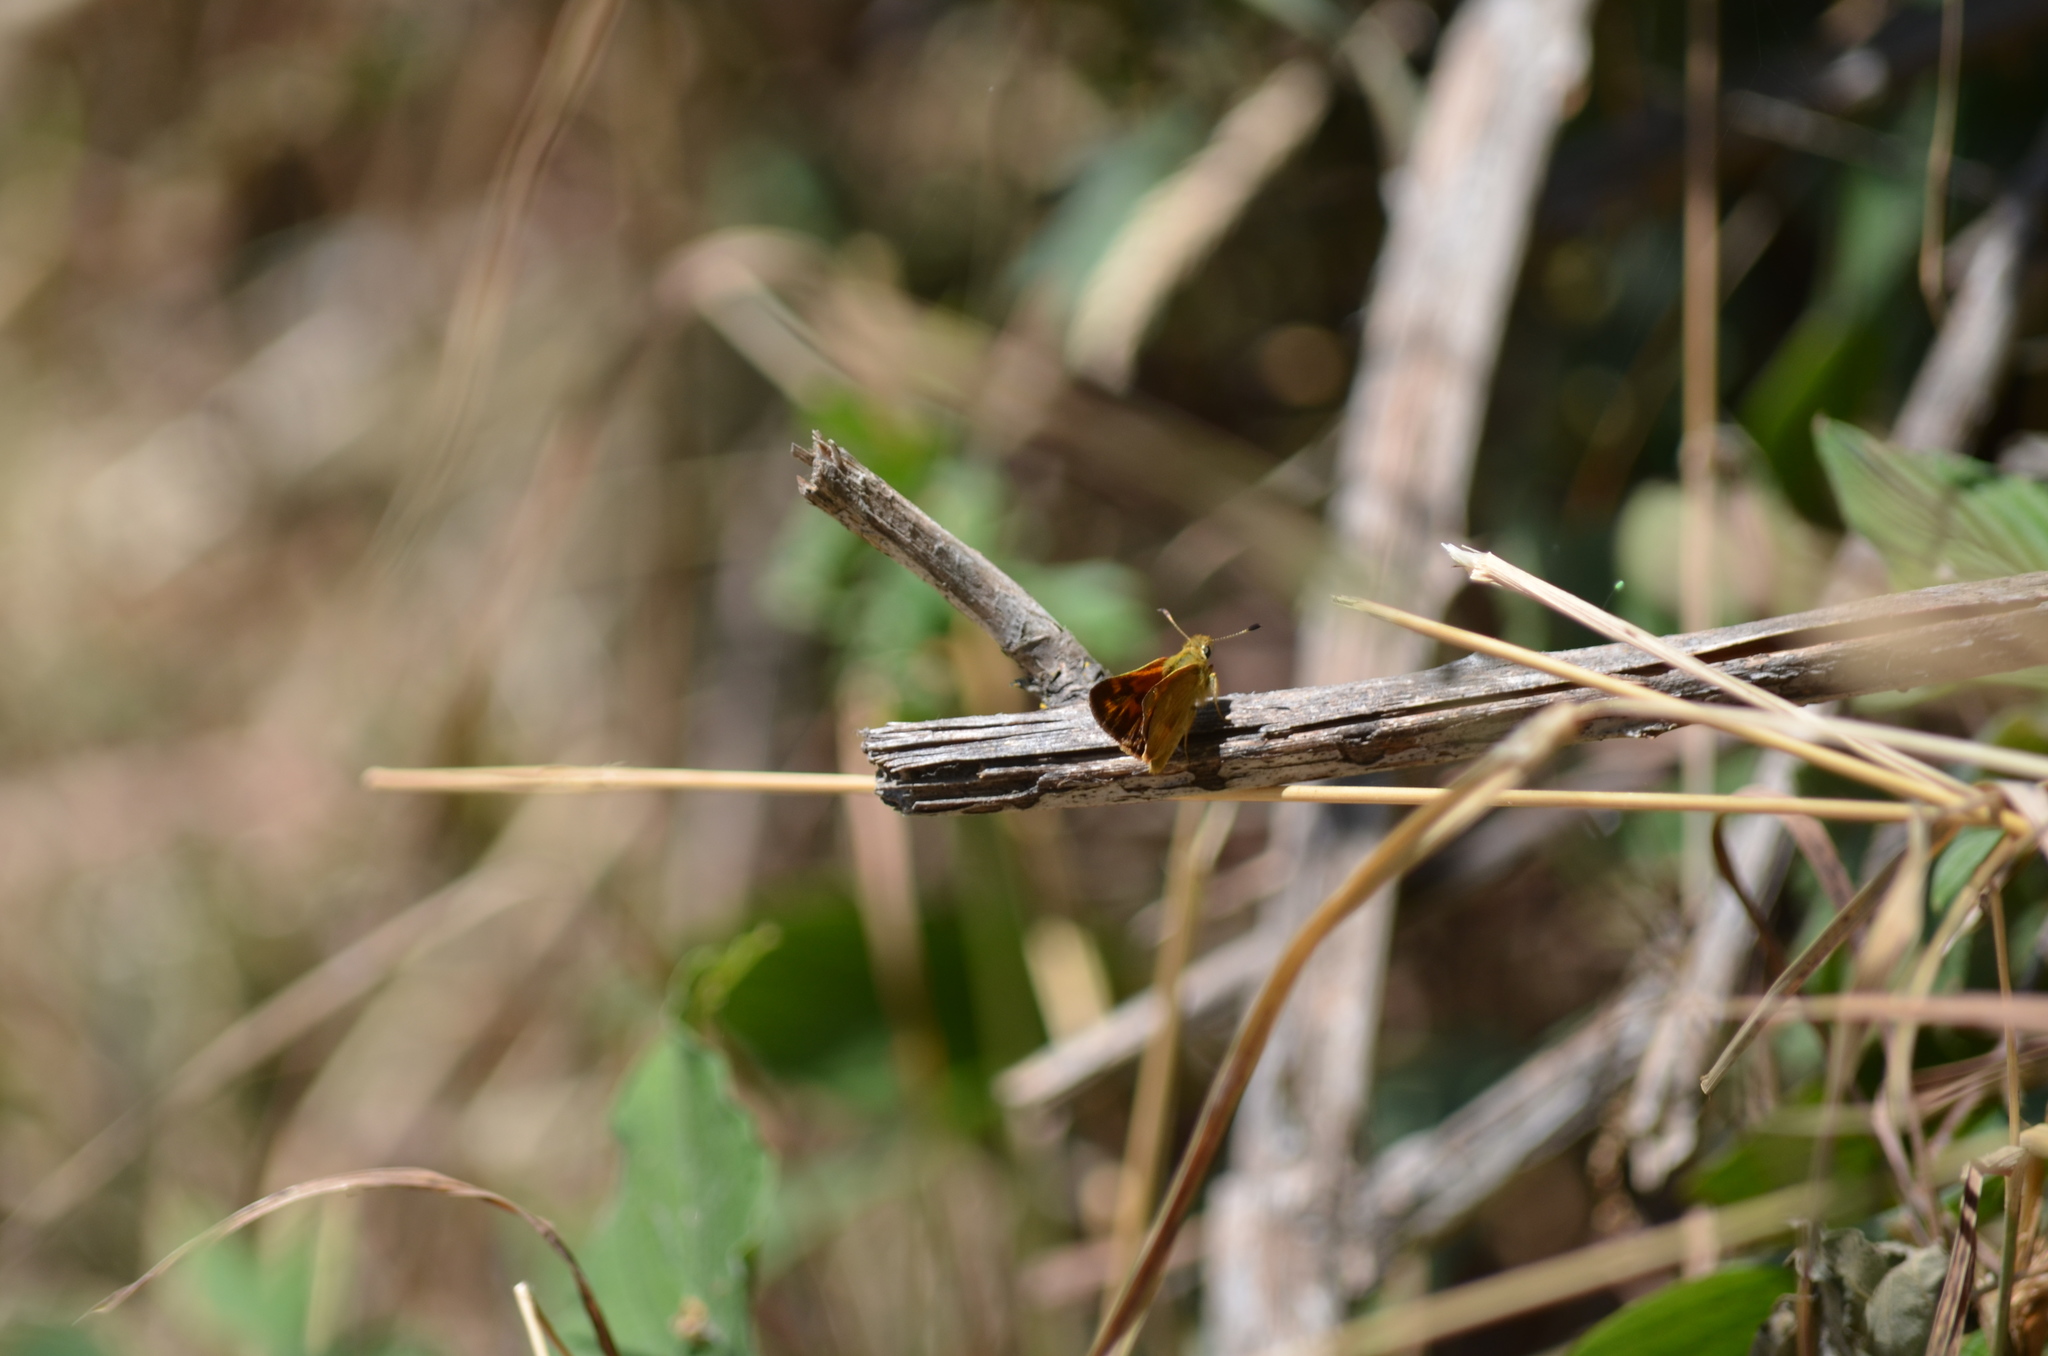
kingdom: Animalia
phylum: Arthropoda
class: Insecta
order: Lepidoptera
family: Hesperiidae
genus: Ochlodes
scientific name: Ochlodes sylvanoides
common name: Woodland skipper
